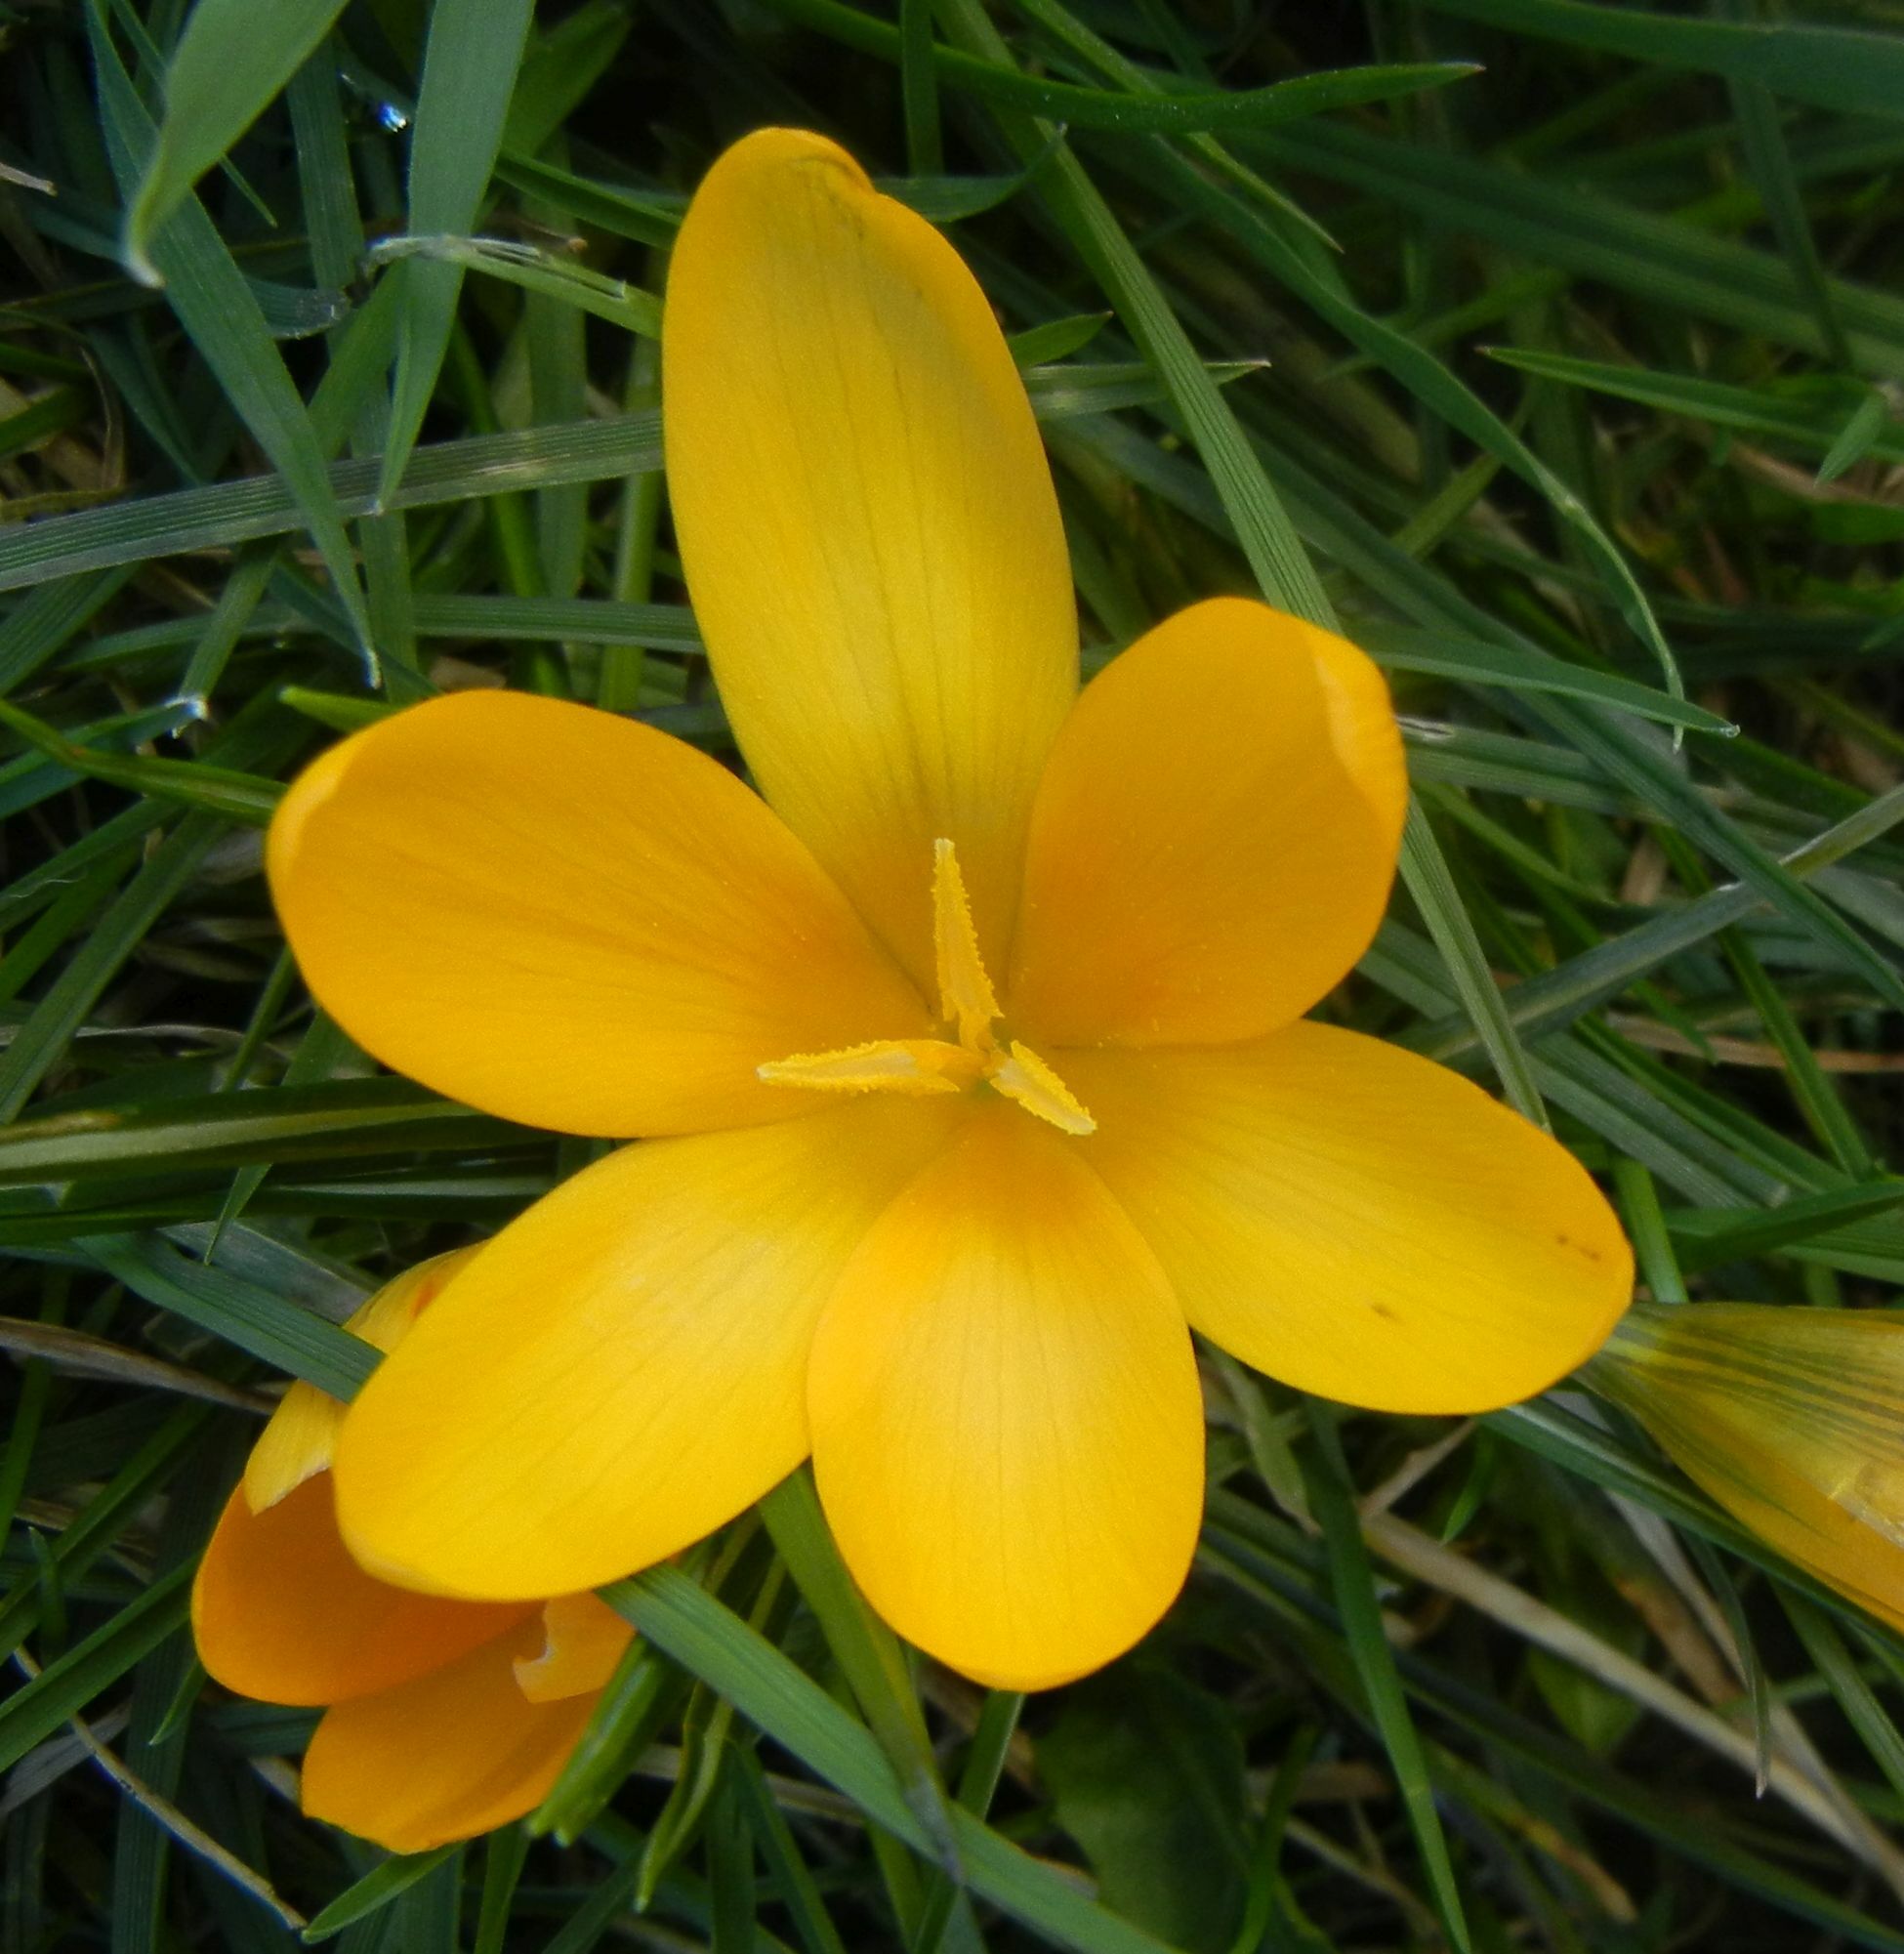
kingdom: Plantae
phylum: Tracheophyta
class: Liliopsida
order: Asparagales
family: Iridaceae
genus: Crocus
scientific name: Crocus luteus
